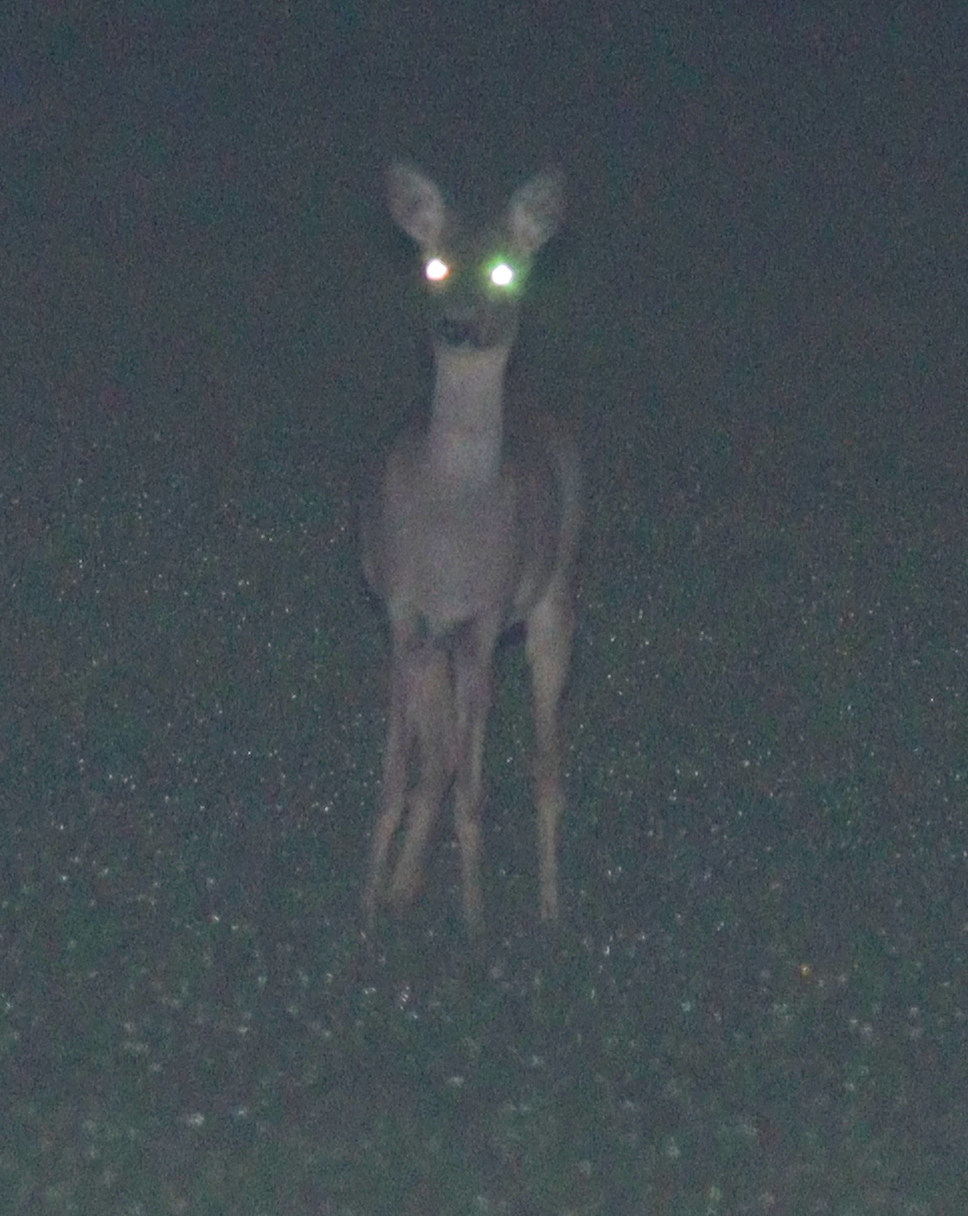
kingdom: Animalia
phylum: Chordata
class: Mammalia
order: Artiodactyla
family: Cervidae
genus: Capreolus
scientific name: Capreolus capreolus
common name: Western roe deer
